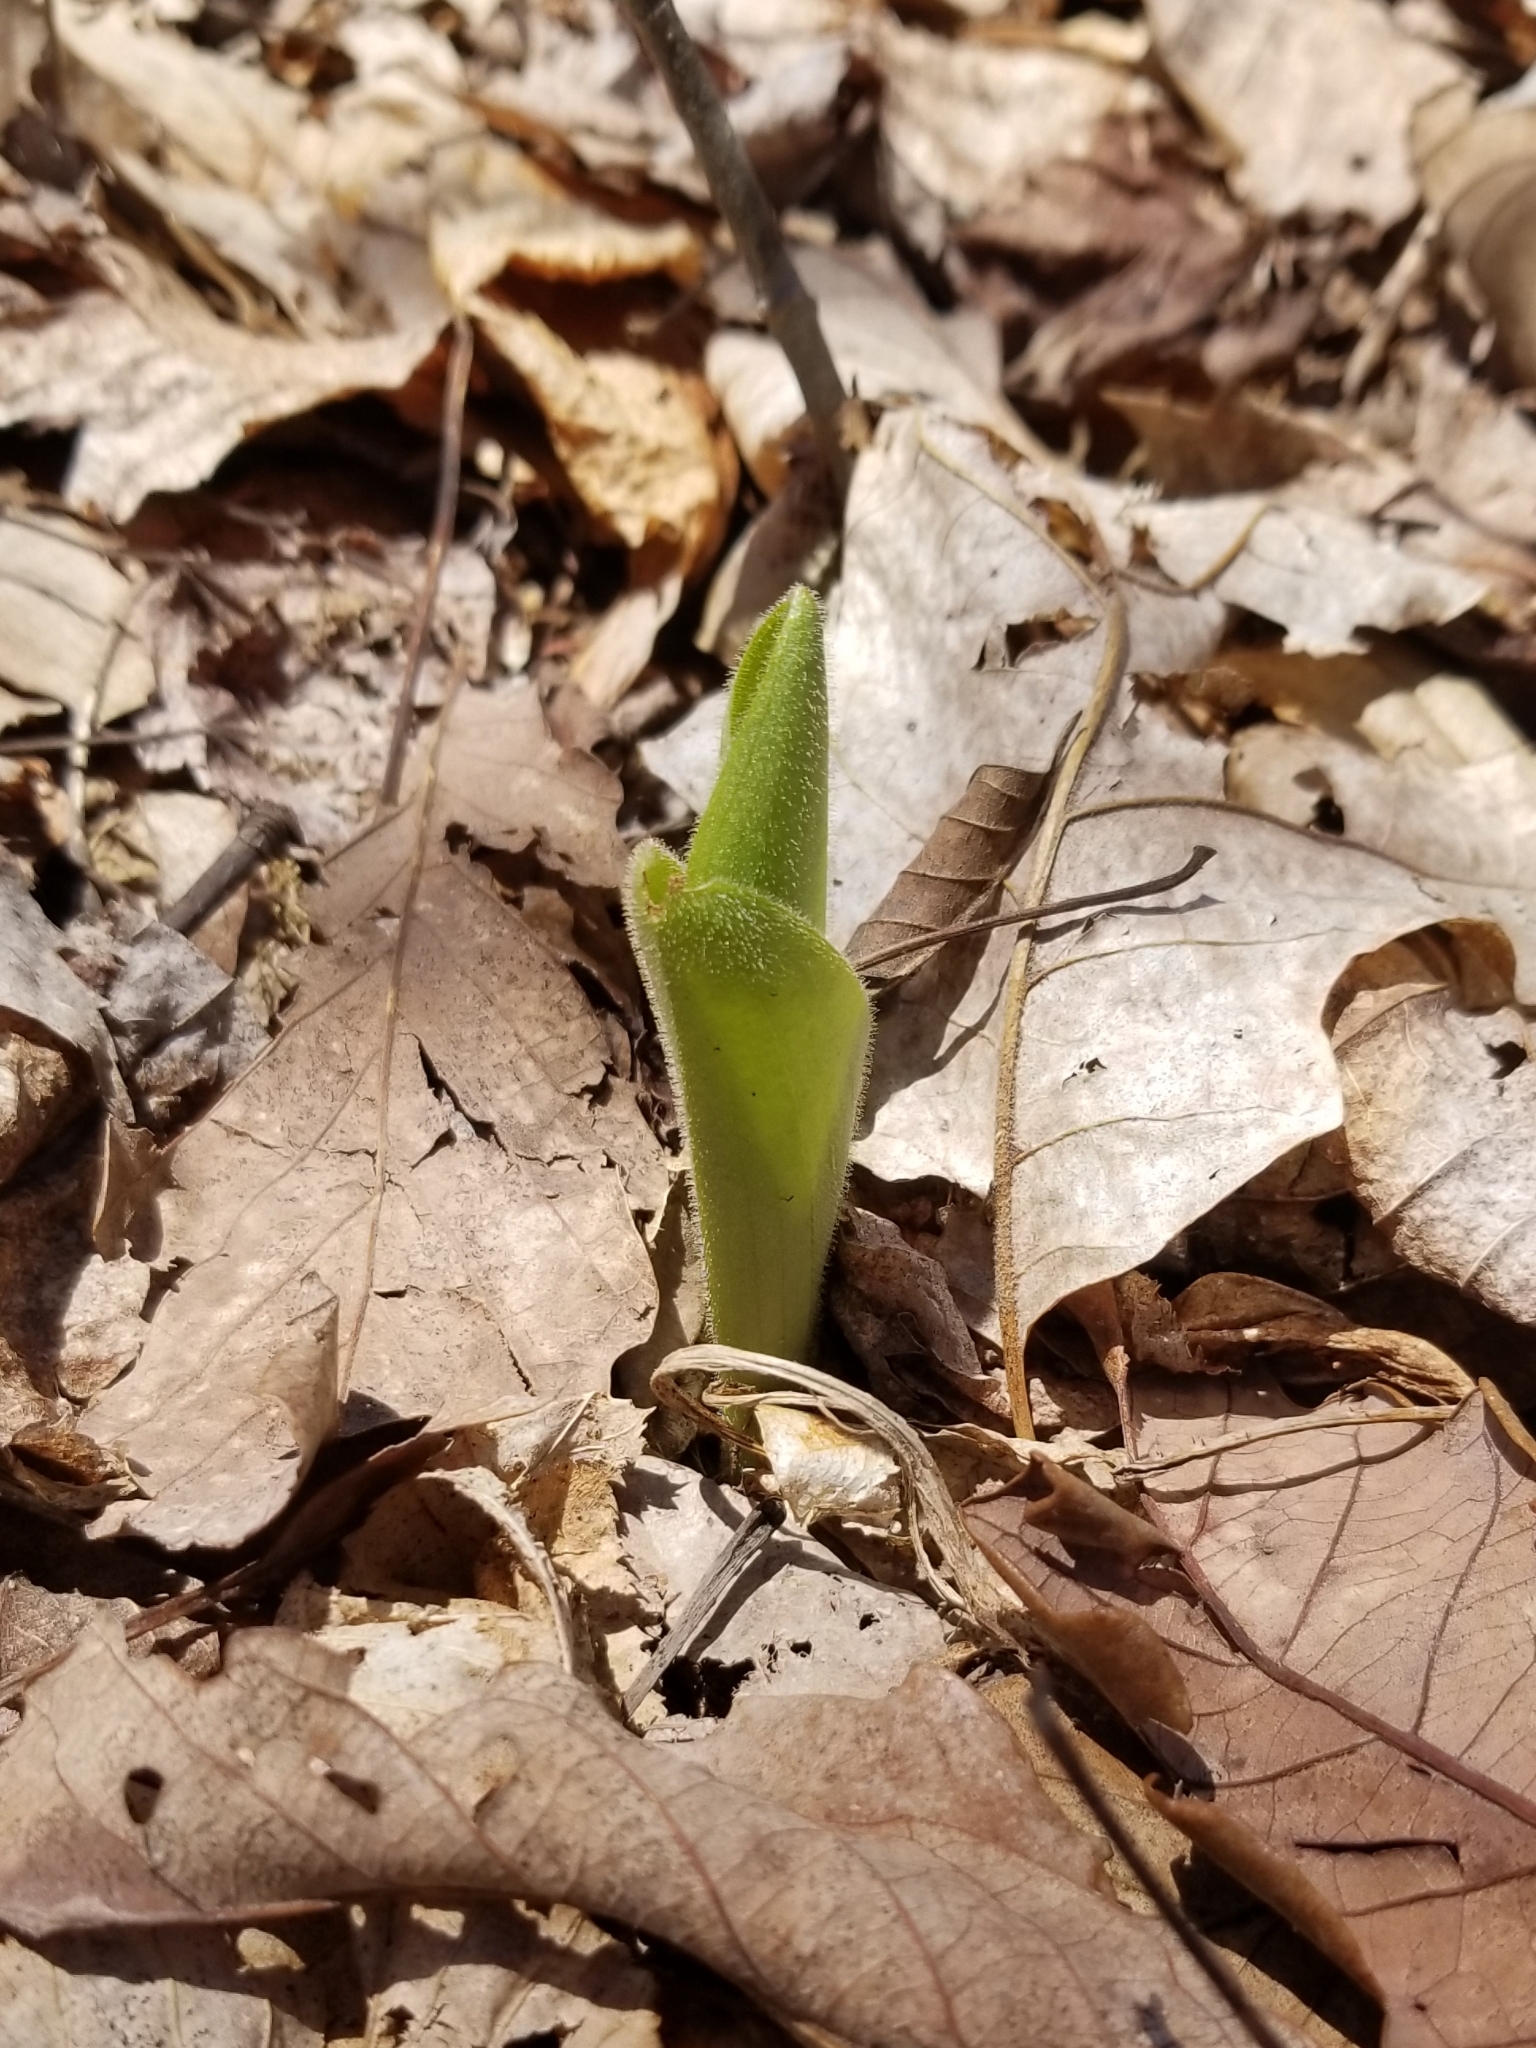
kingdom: Plantae
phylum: Tracheophyta
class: Liliopsida
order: Asparagales
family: Orchidaceae
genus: Cypripedium
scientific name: Cypripedium acaule
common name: Pink lady's-slipper
